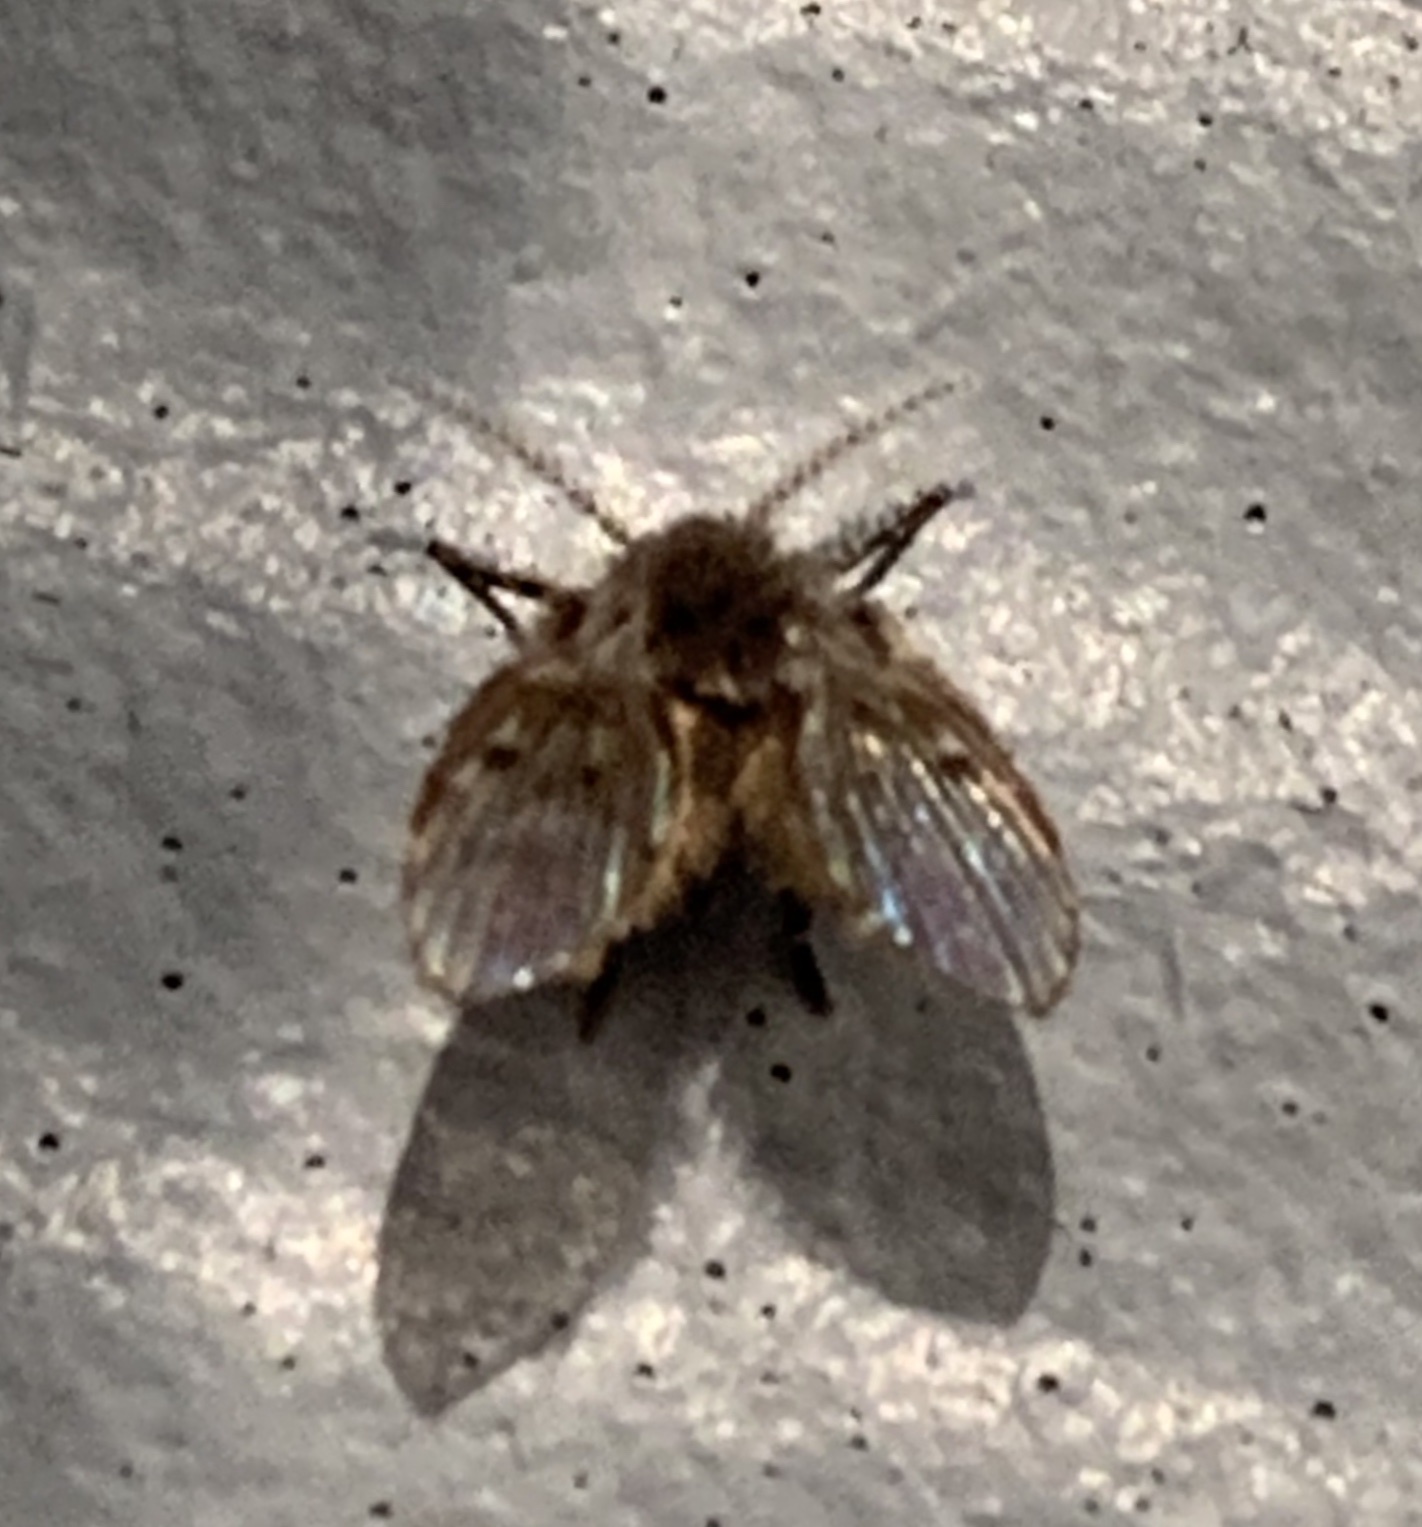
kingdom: Animalia
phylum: Arthropoda
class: Insecta
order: Diptera
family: Psychodidae
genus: Clogmia
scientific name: Clogmia albipunctatus
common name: White-spotted moth fly
